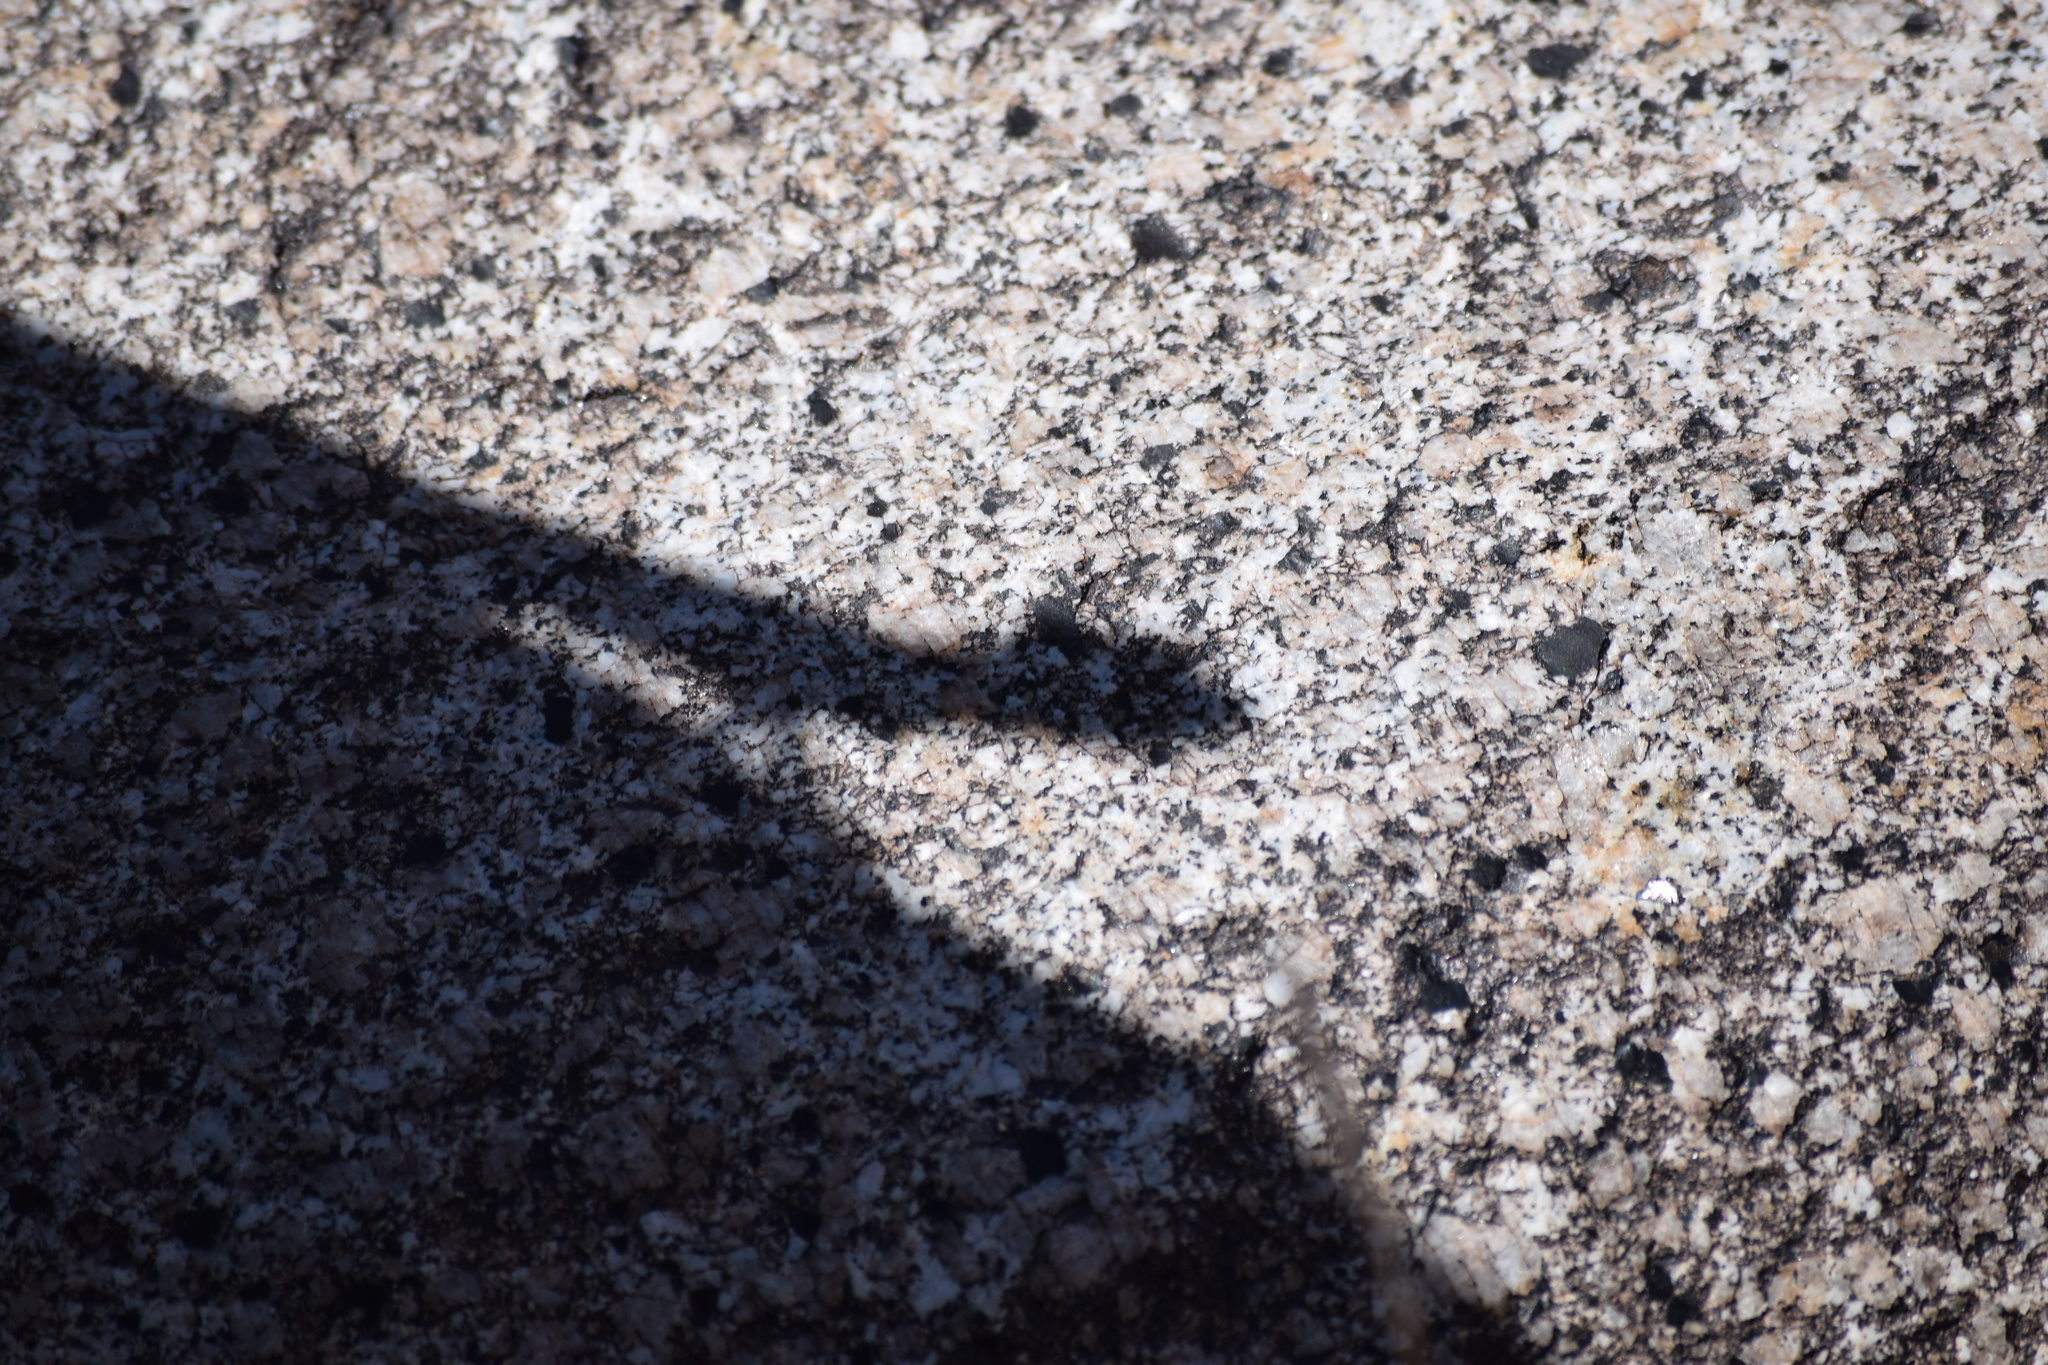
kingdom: Animalia
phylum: Chordata
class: Squamata
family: Phrynosomatidae
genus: Petrosaurus
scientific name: Petrosaurus mearnsi
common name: Banded rock lizard
